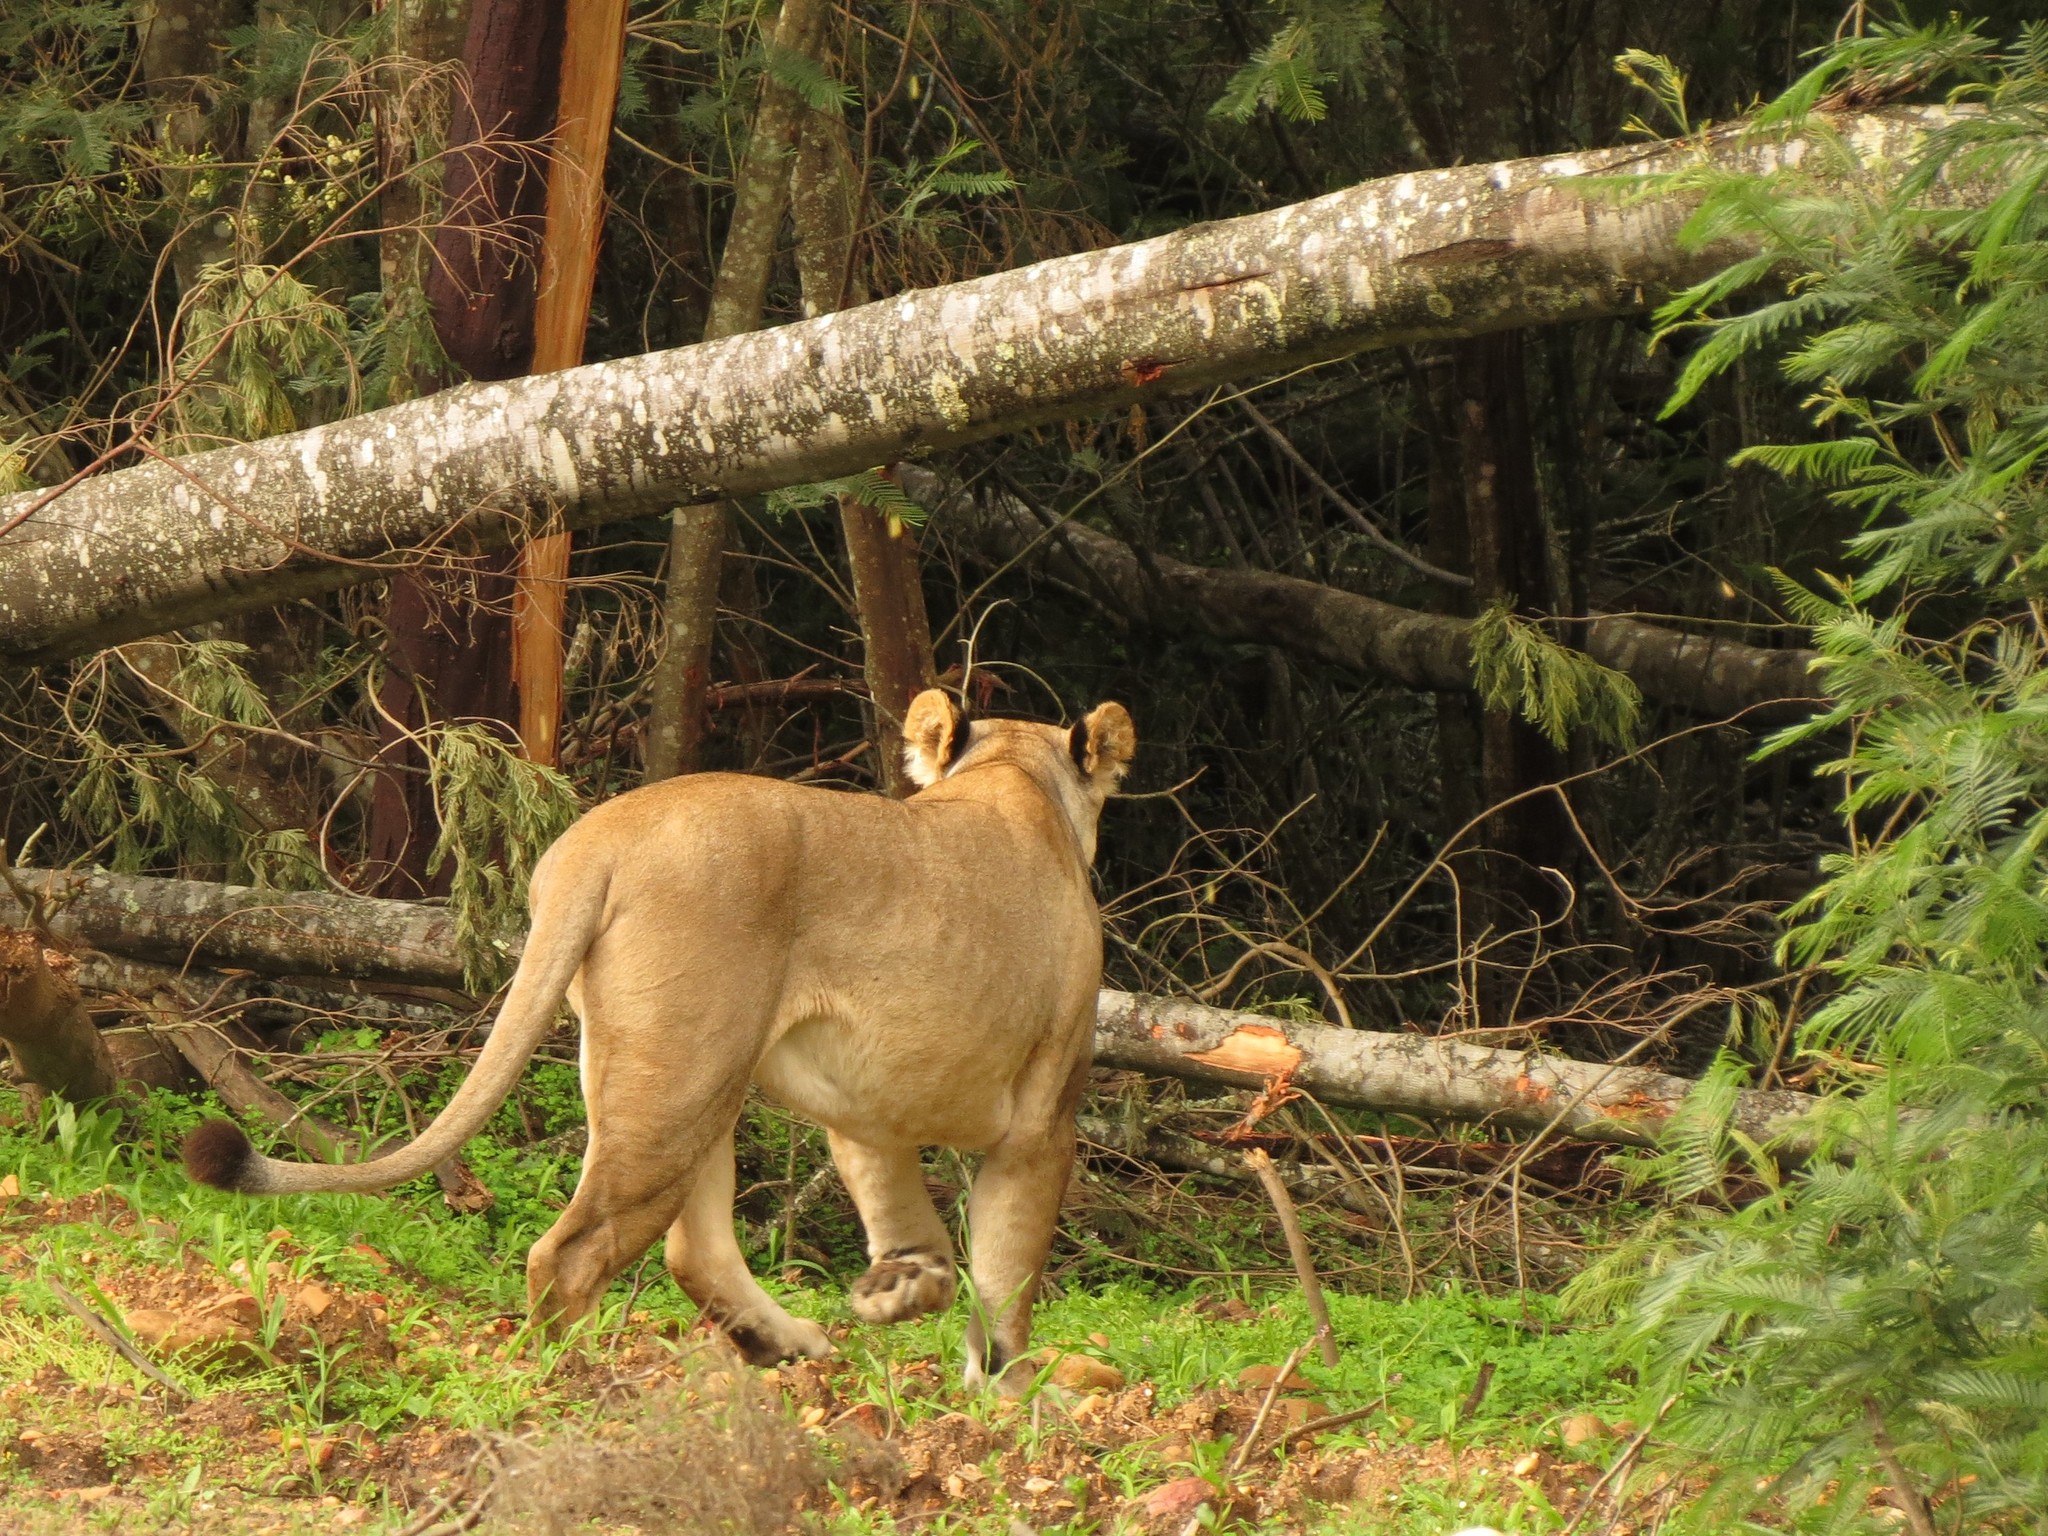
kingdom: Animalia
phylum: Chordata
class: Mammalia
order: Carnivora
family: Felidae
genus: Panthera
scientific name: Panthera leo
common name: Lion
